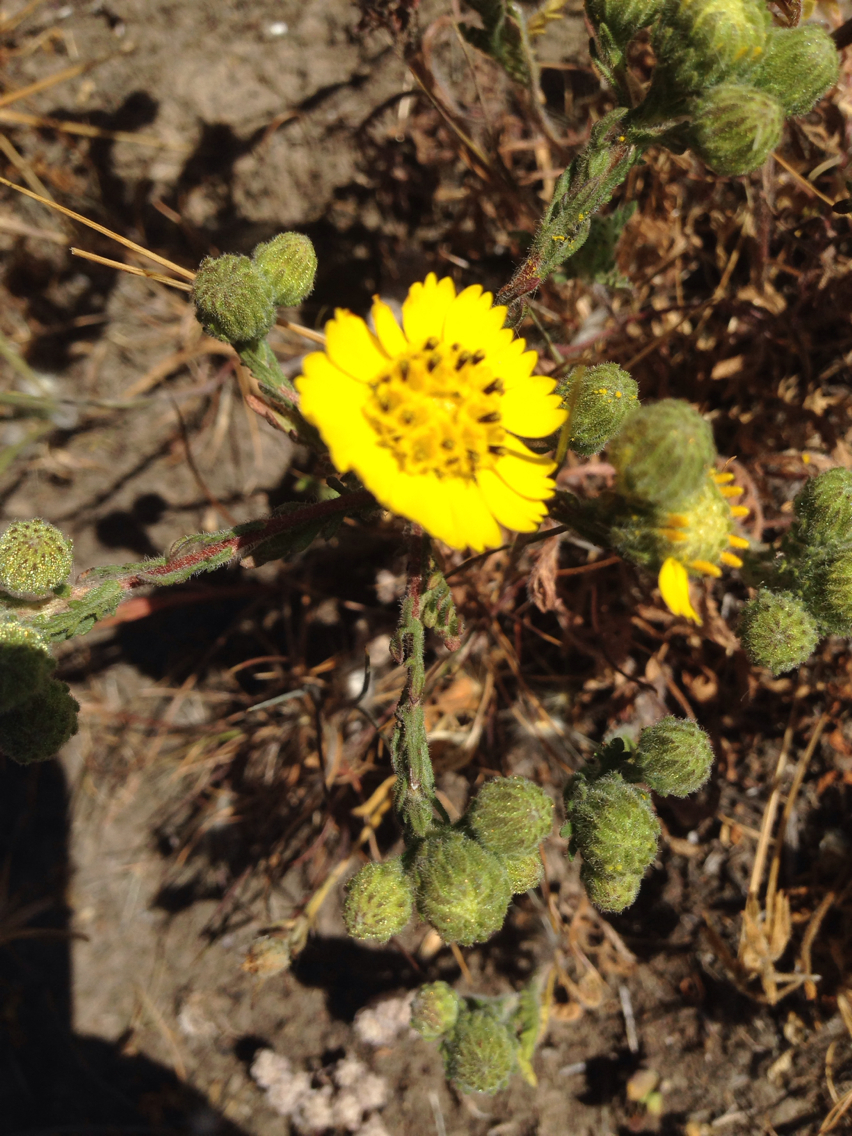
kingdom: Plantae
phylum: Tracheophyta
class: Magnoliopsida
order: Asterales
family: Asteraceae
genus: Deinandra
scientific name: Deinandra corymbosa
